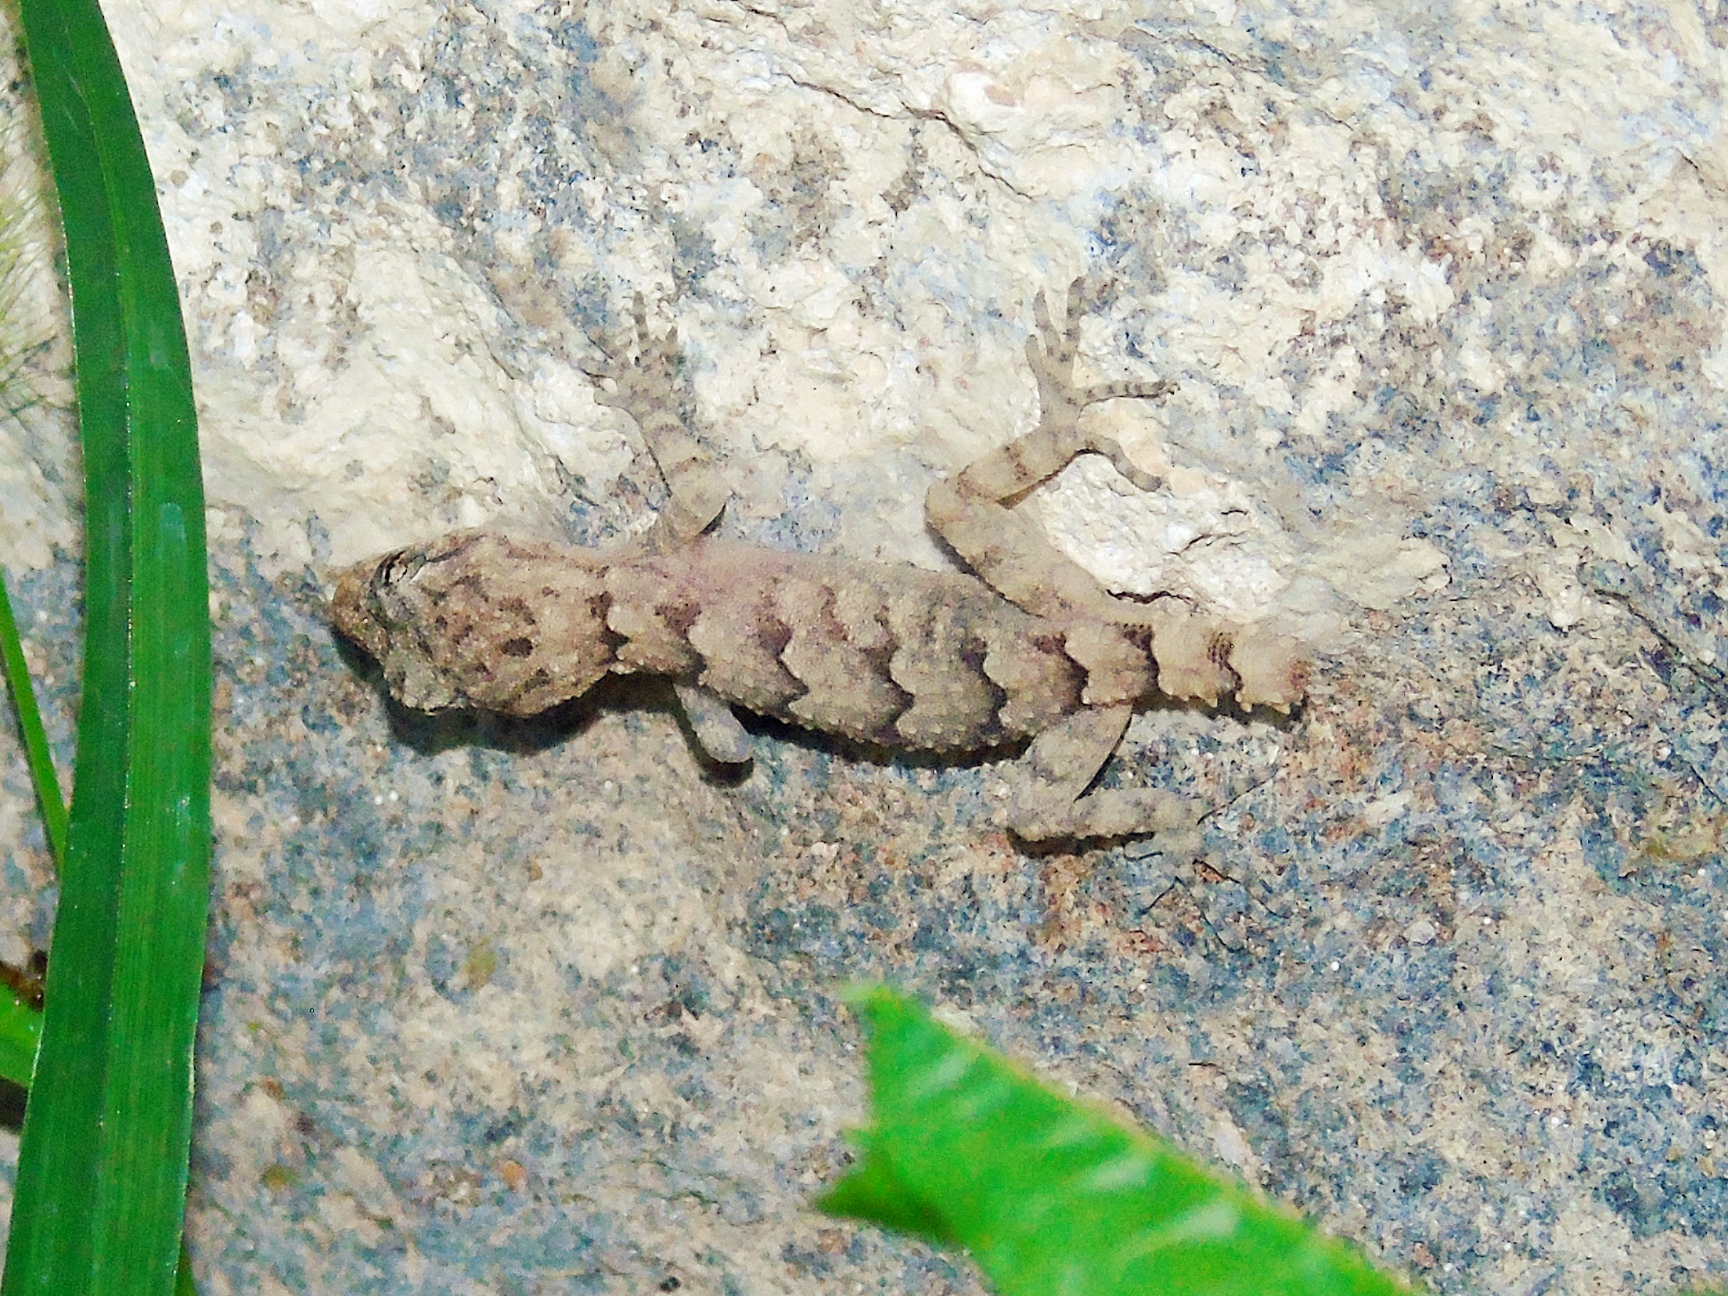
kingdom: Animalia
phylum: Chordata
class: Squamata
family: Gekkonidae
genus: Mediodactylus
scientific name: Mediodactylus heterocercus
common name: Asia minor thin-toed gecko
